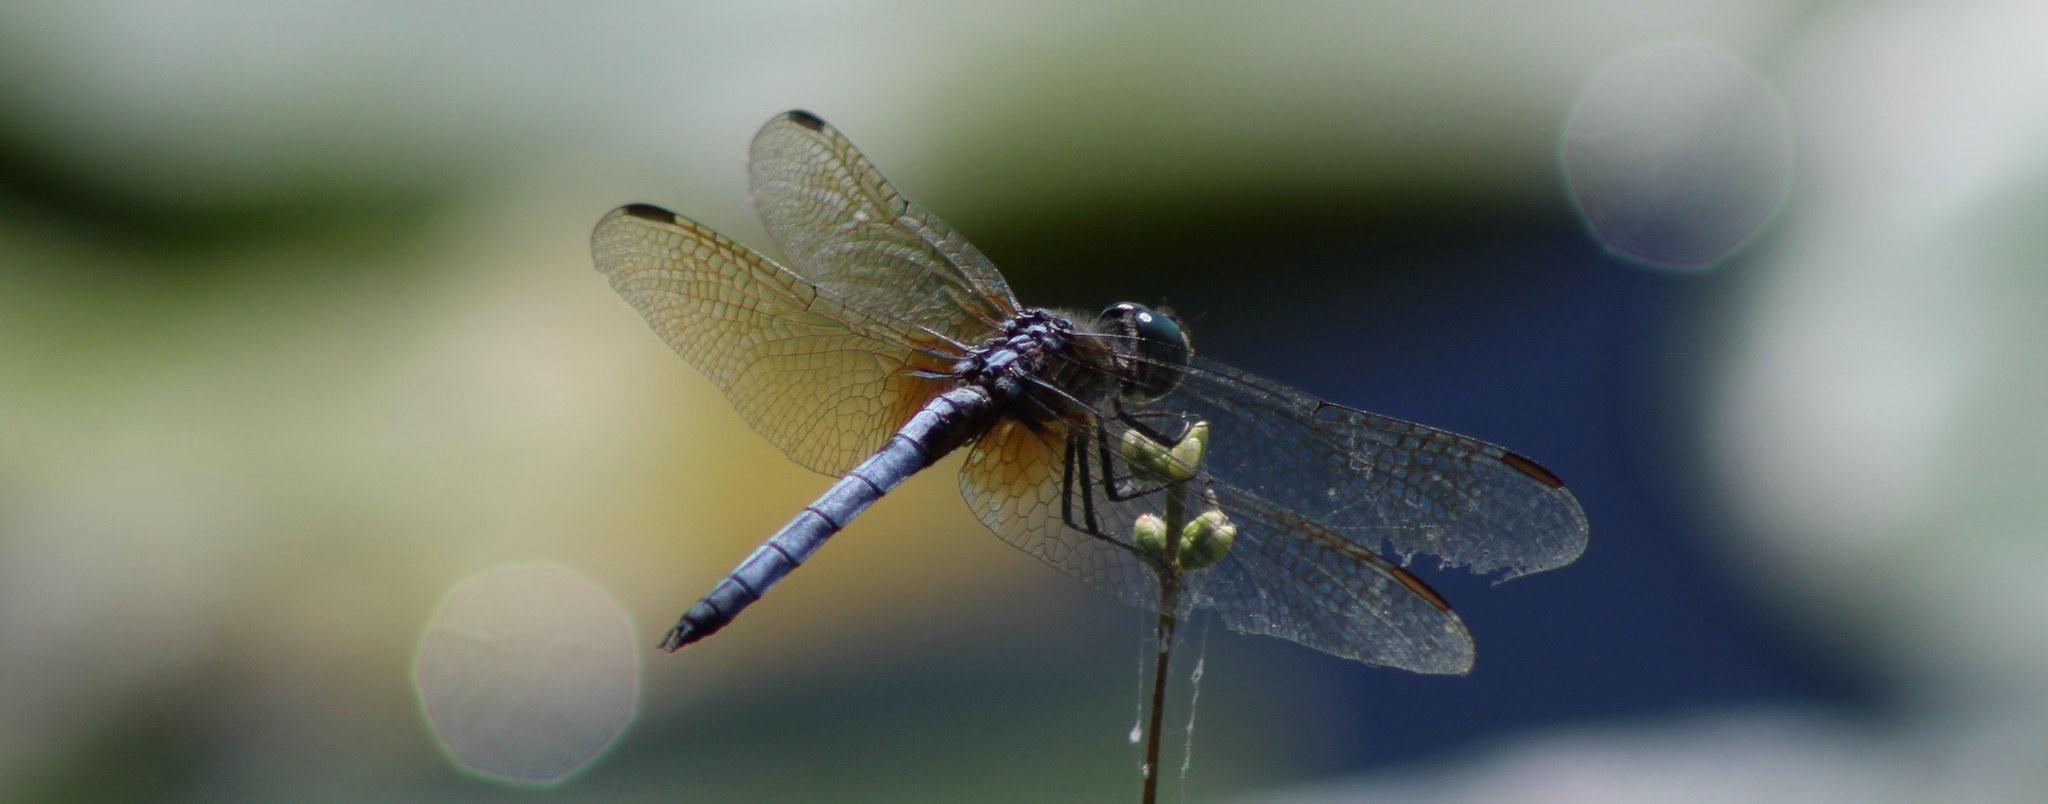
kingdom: Animalia
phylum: Arthropoda
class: Insecta
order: Odonata
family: Libellulidae
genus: Pachydiplax
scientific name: Pachydiplax longipennis
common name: Blue dasher
